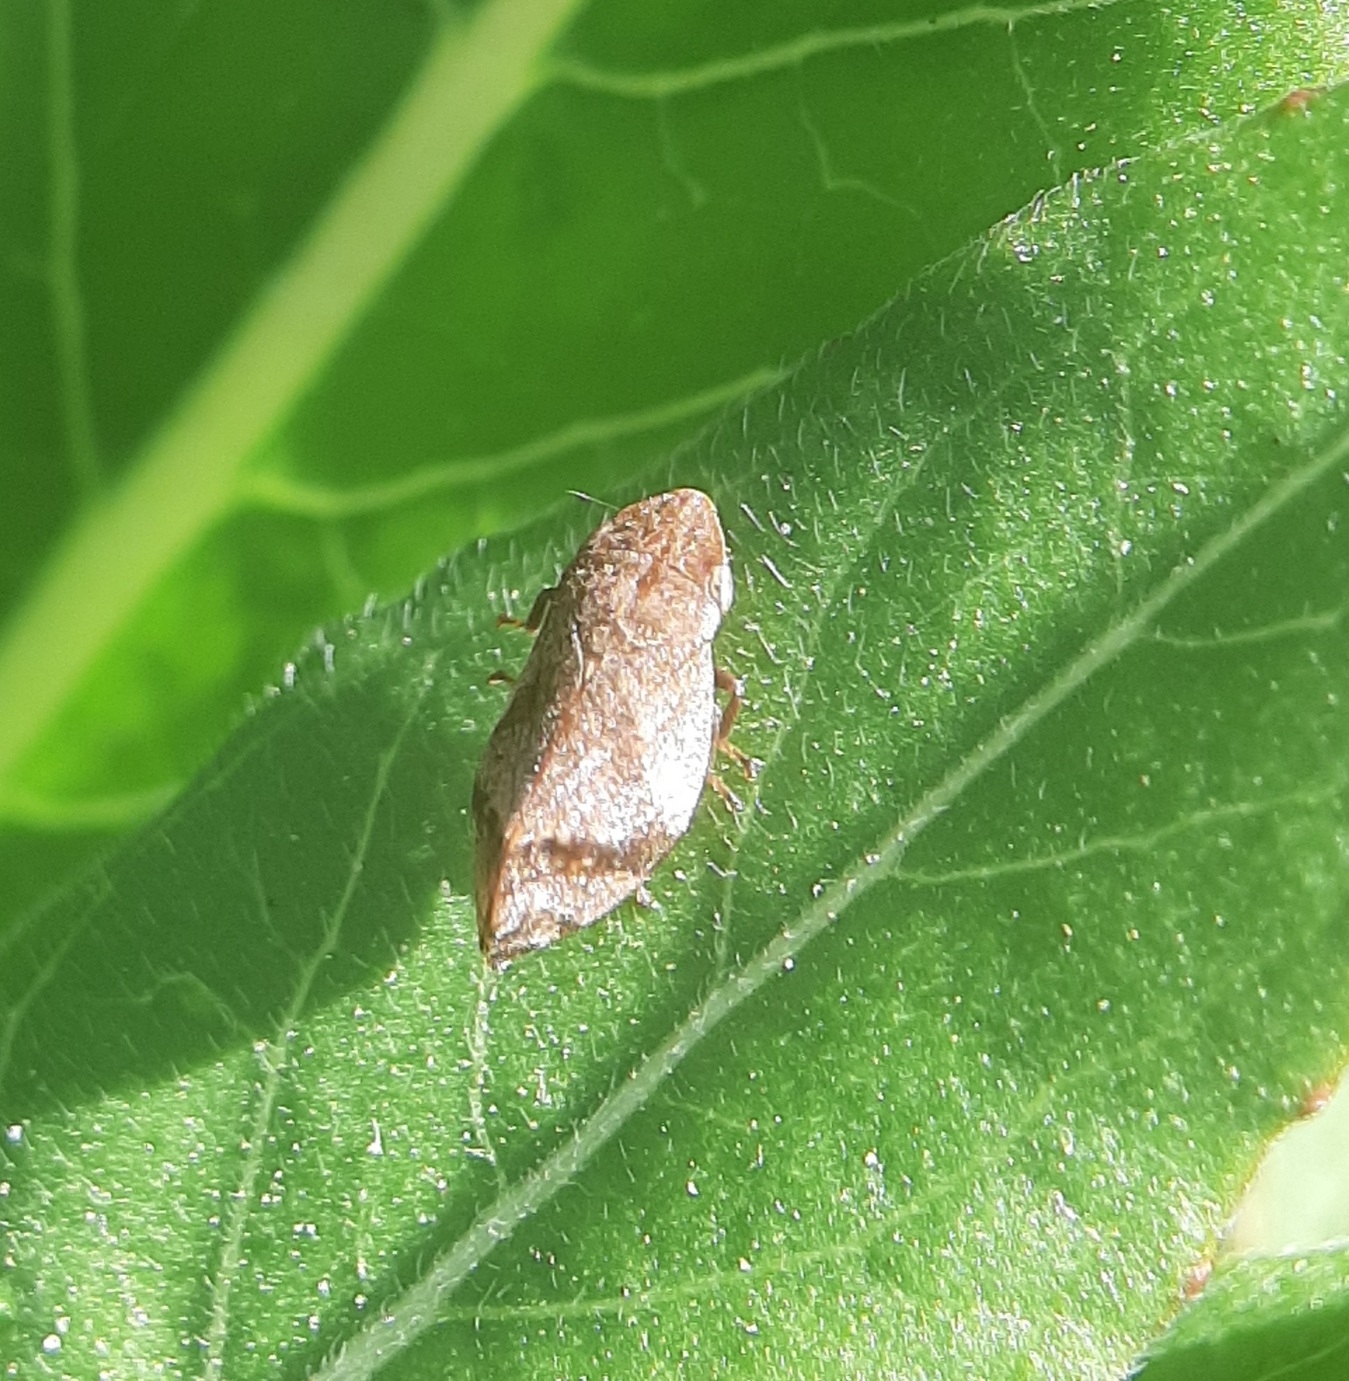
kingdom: Animalia
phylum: Arthropoda
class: Insecta
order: Hemiptera
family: Aphrophoridae
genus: Lepyronia
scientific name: Lepyronia quadrangularis
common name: Diamond-backed spittlebug
